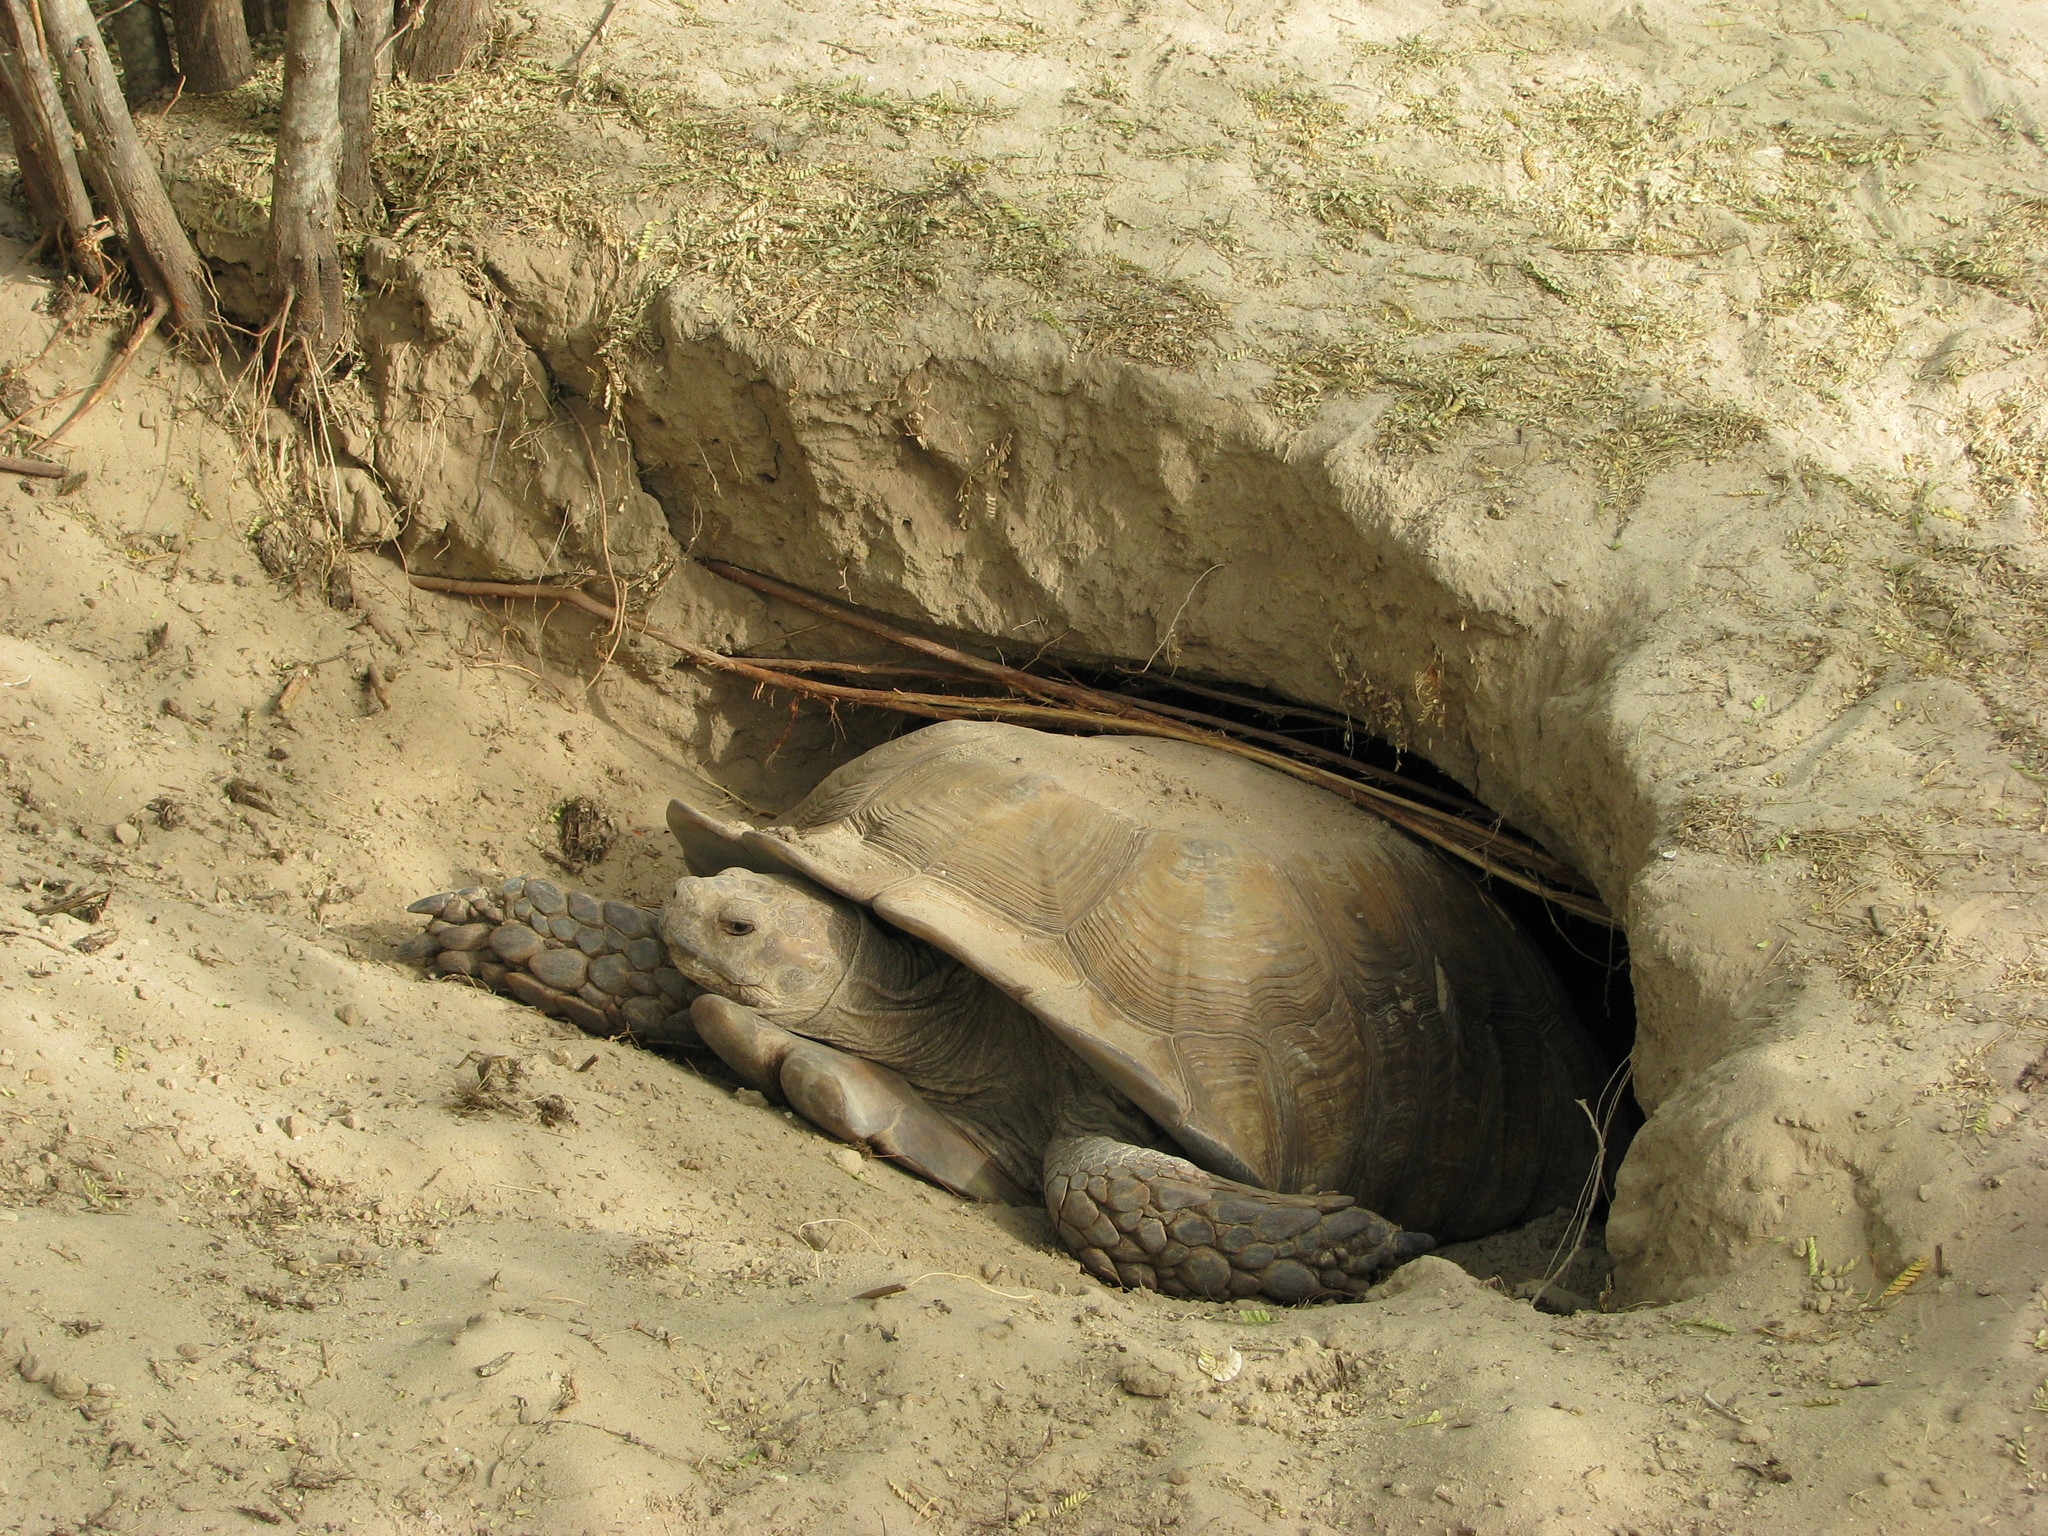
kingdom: Animalia
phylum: Chordata
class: Testudines
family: Testudinidae
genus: Centrochelys
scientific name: Centrochelys sulcata
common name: African spurred tortoise
